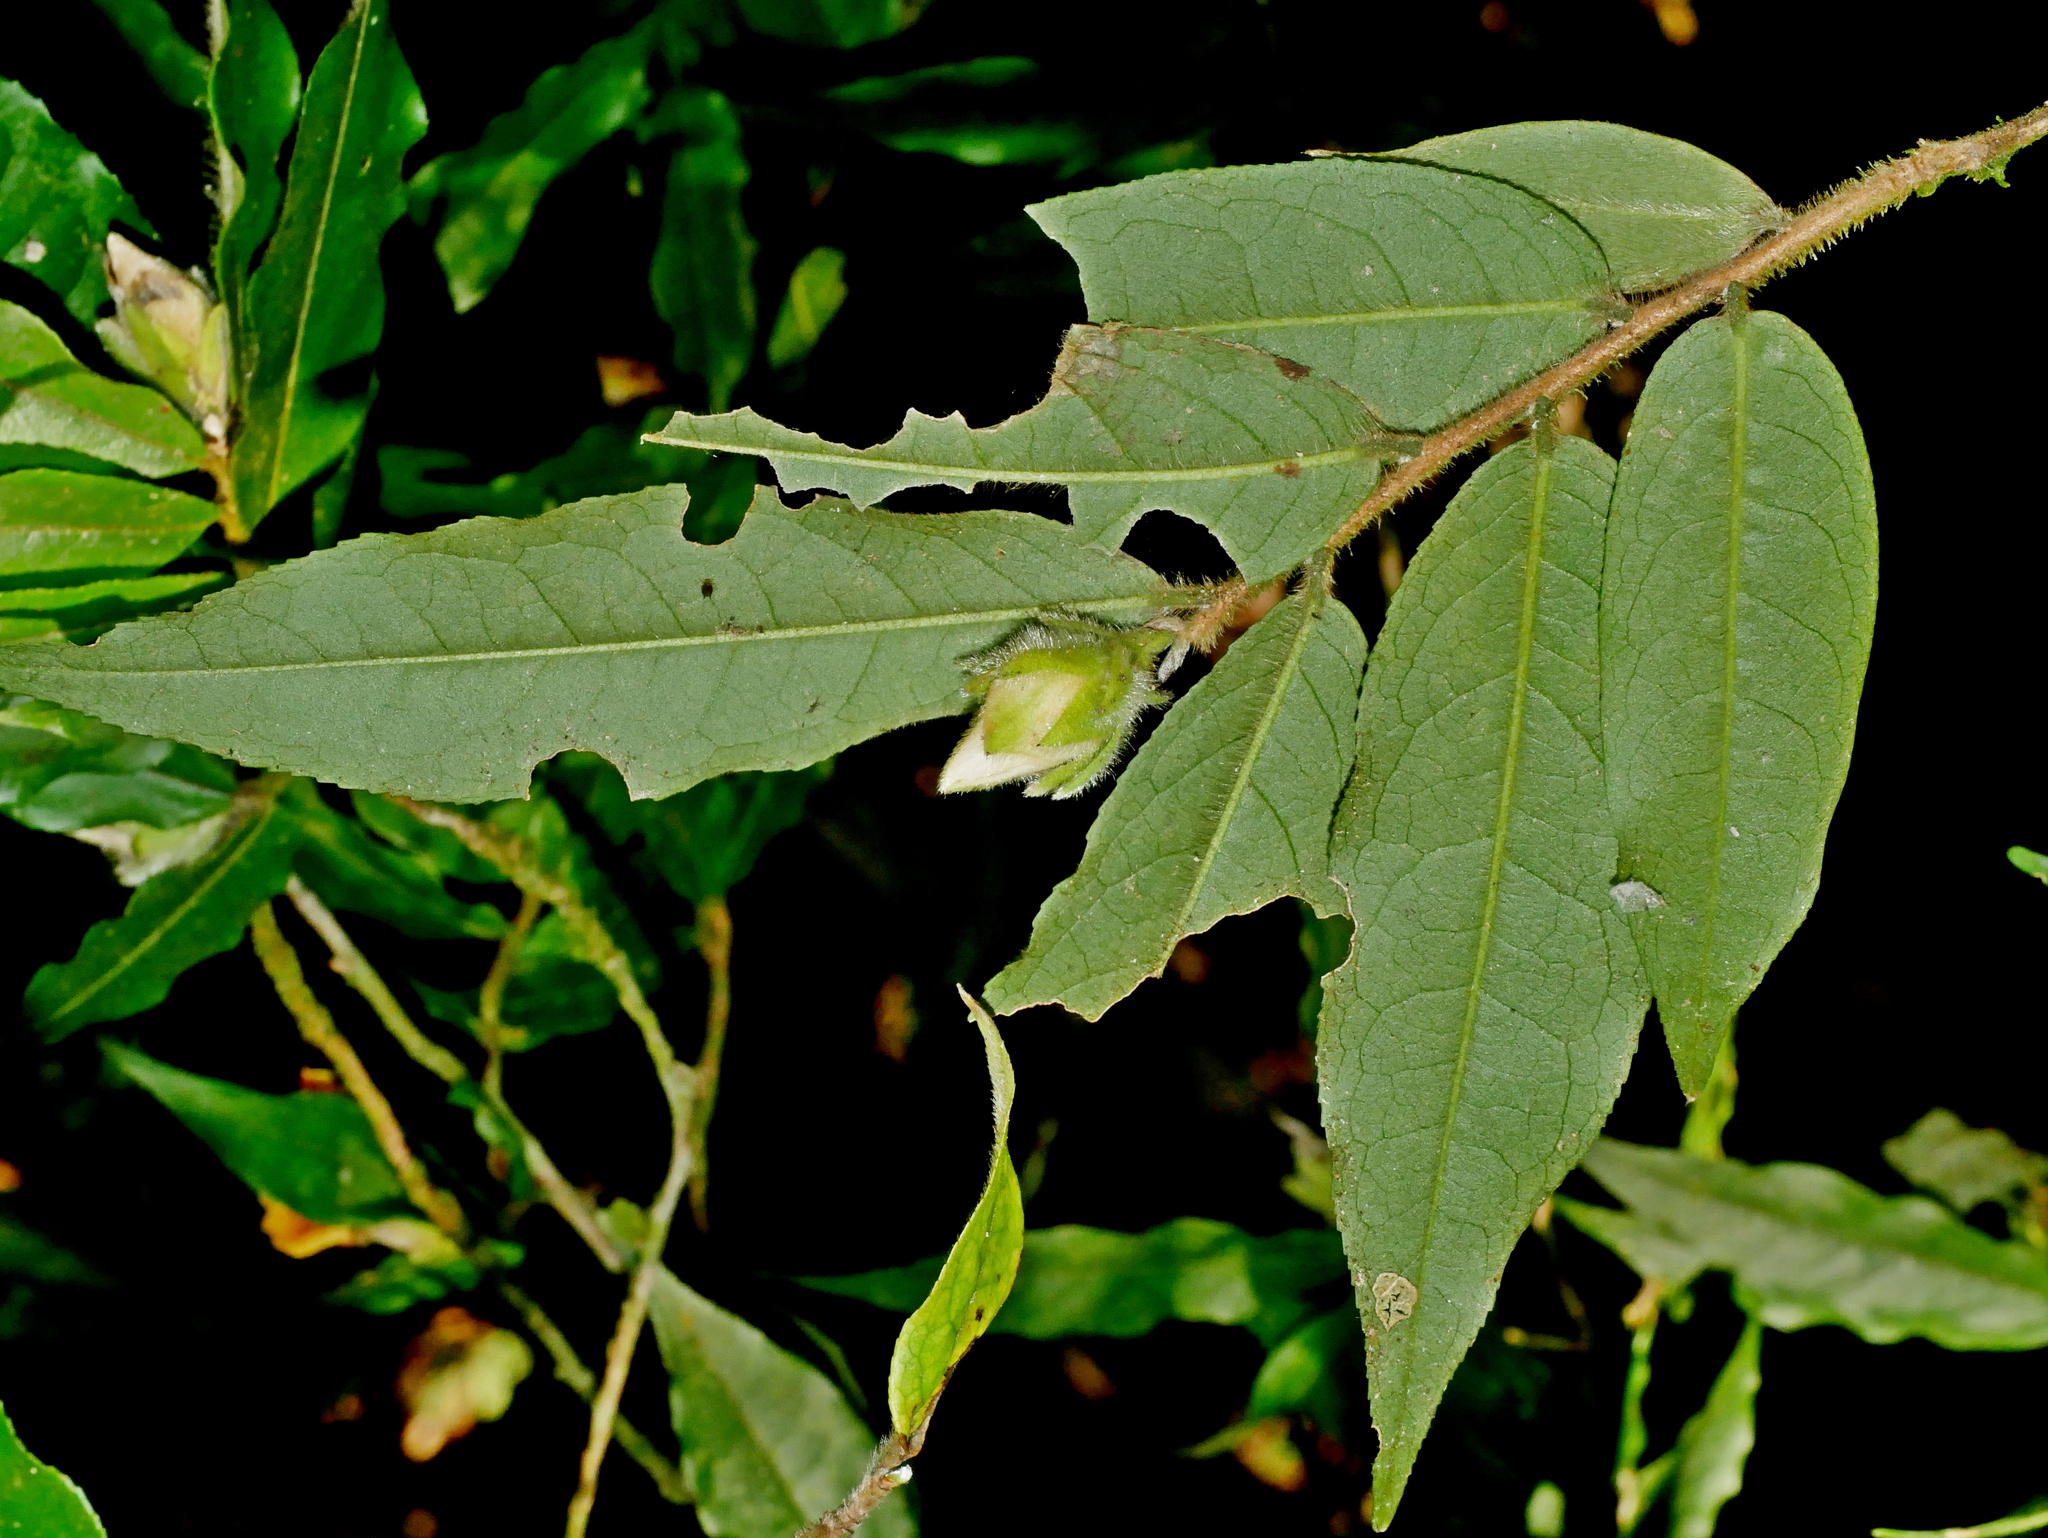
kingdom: Plantae
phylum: Tracheophyta
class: Magnoliopsida
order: Ericales
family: Theaceae
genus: Camellia
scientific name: Camellia salicifolia
